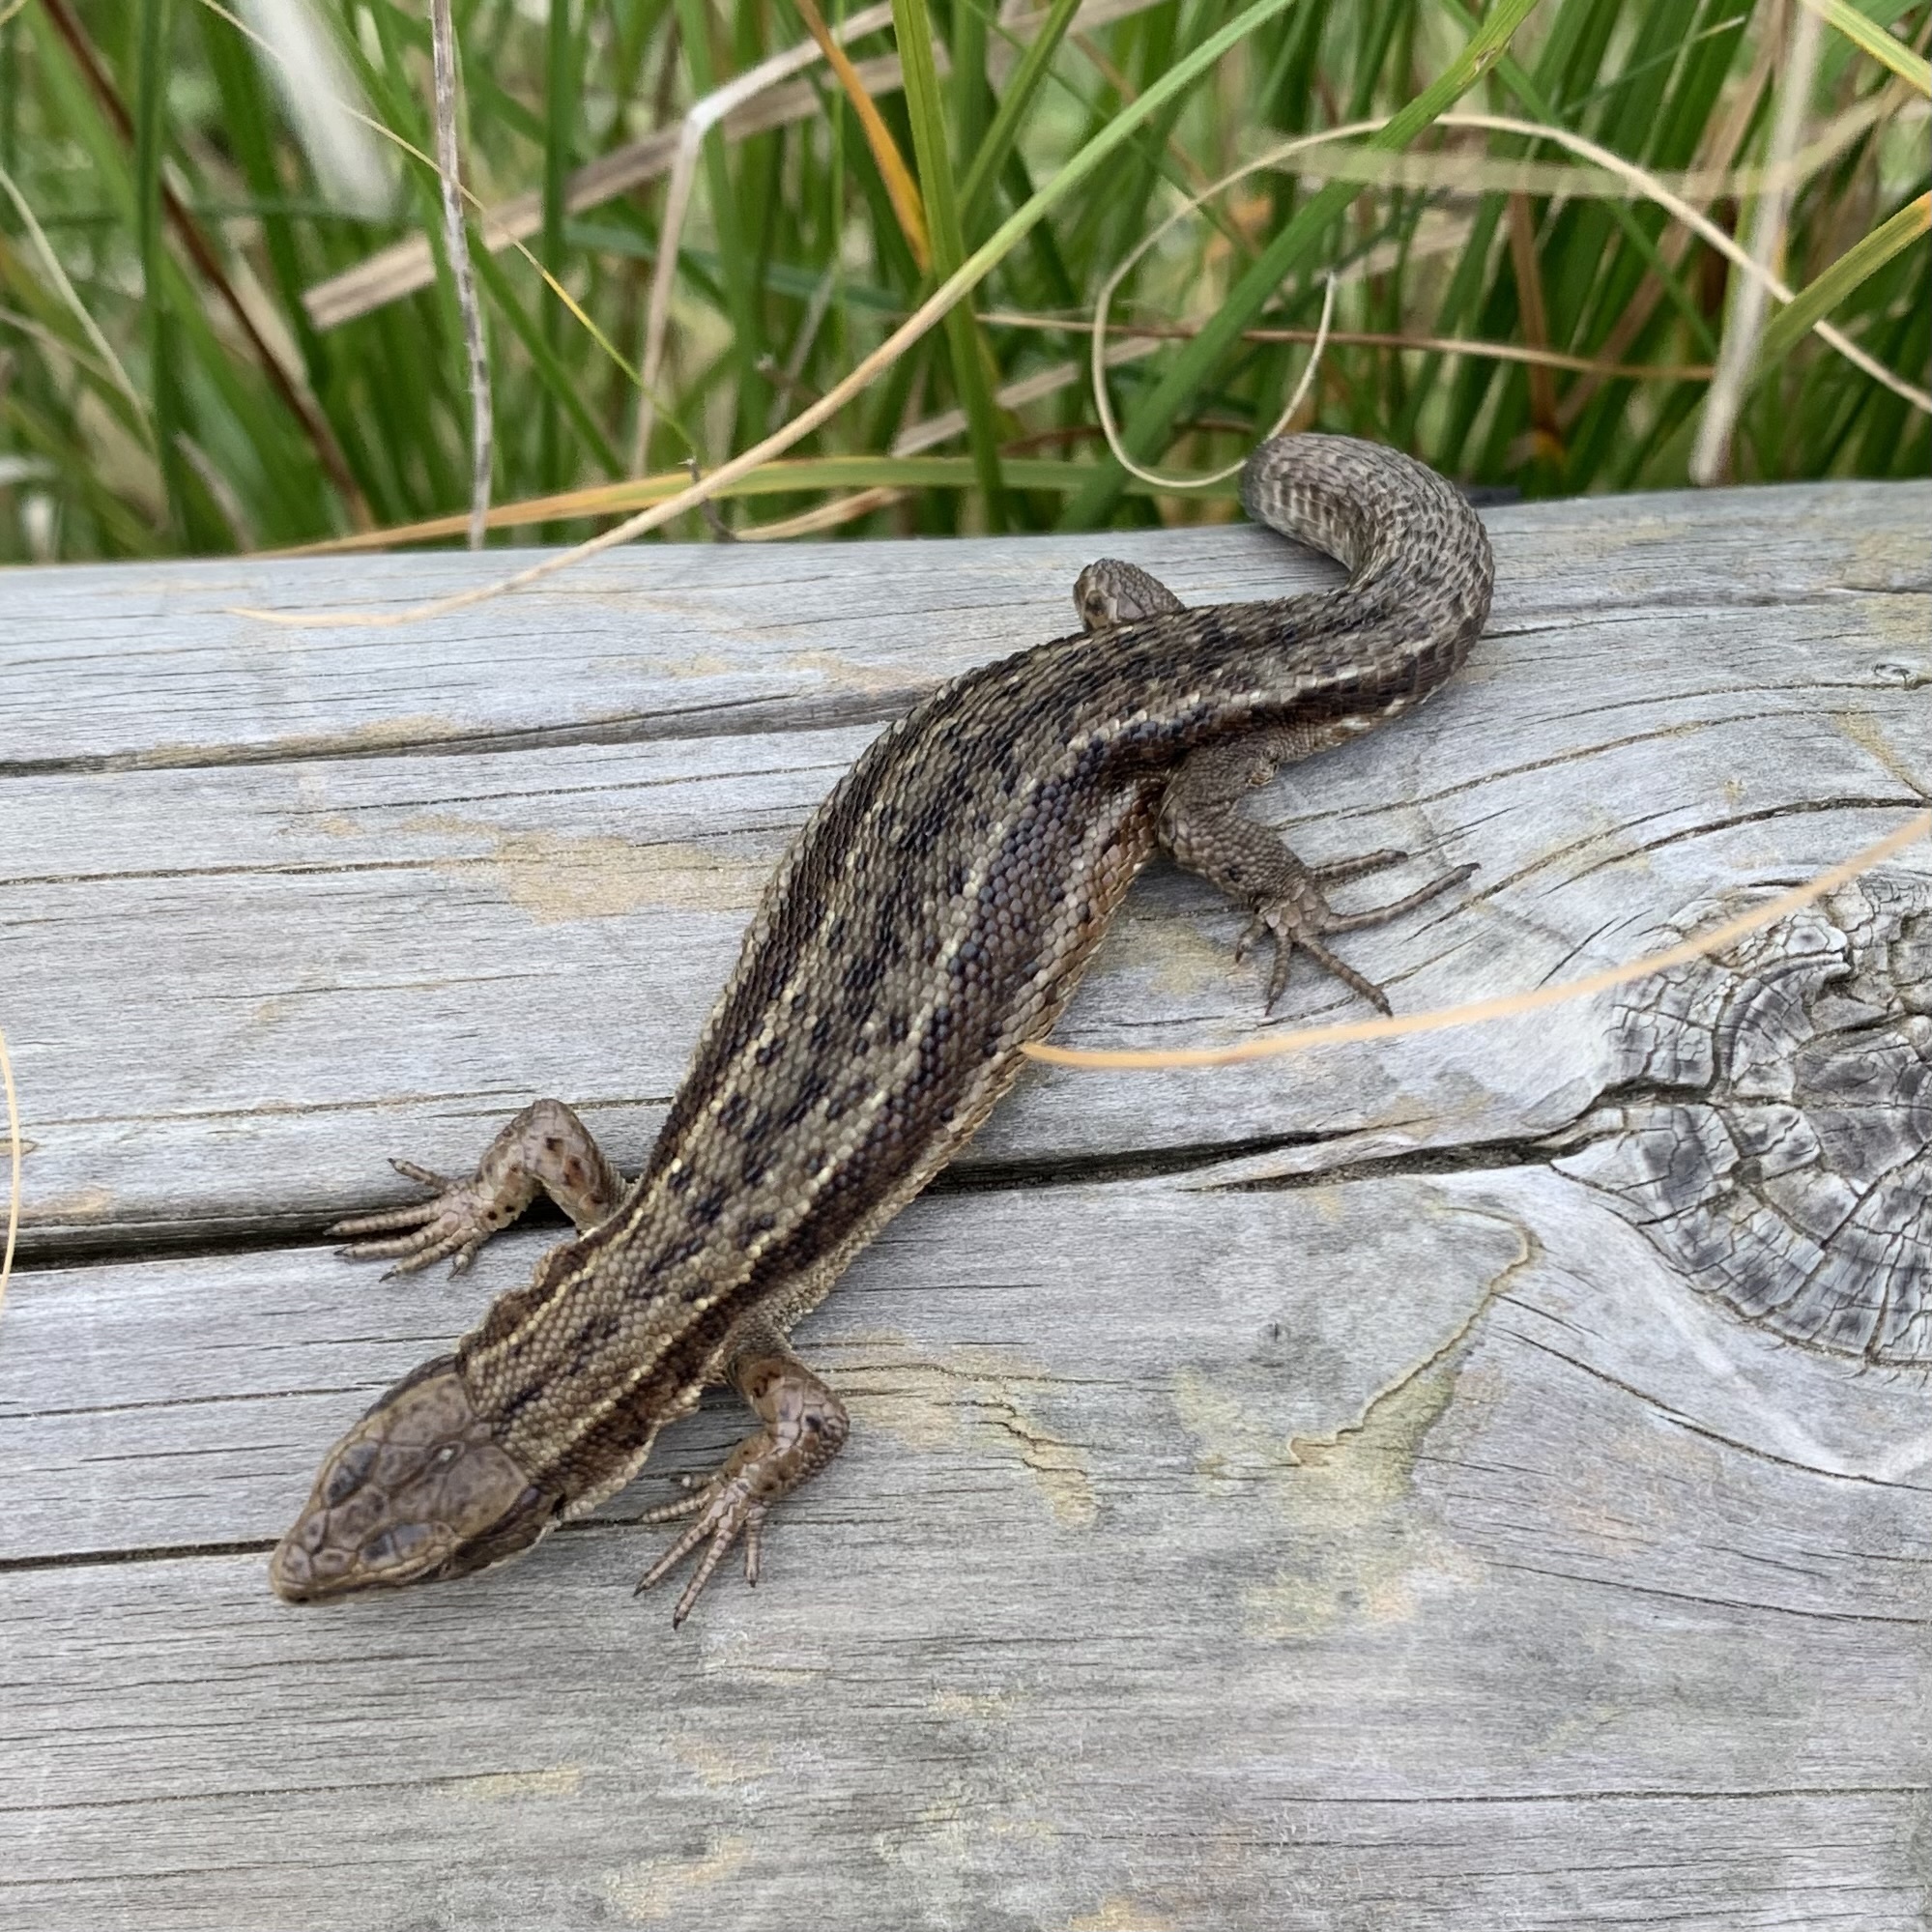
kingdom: Animalia
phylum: Chordata
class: Squamata
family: Lacertidae
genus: Zootoca
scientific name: Zootoca vivipara
